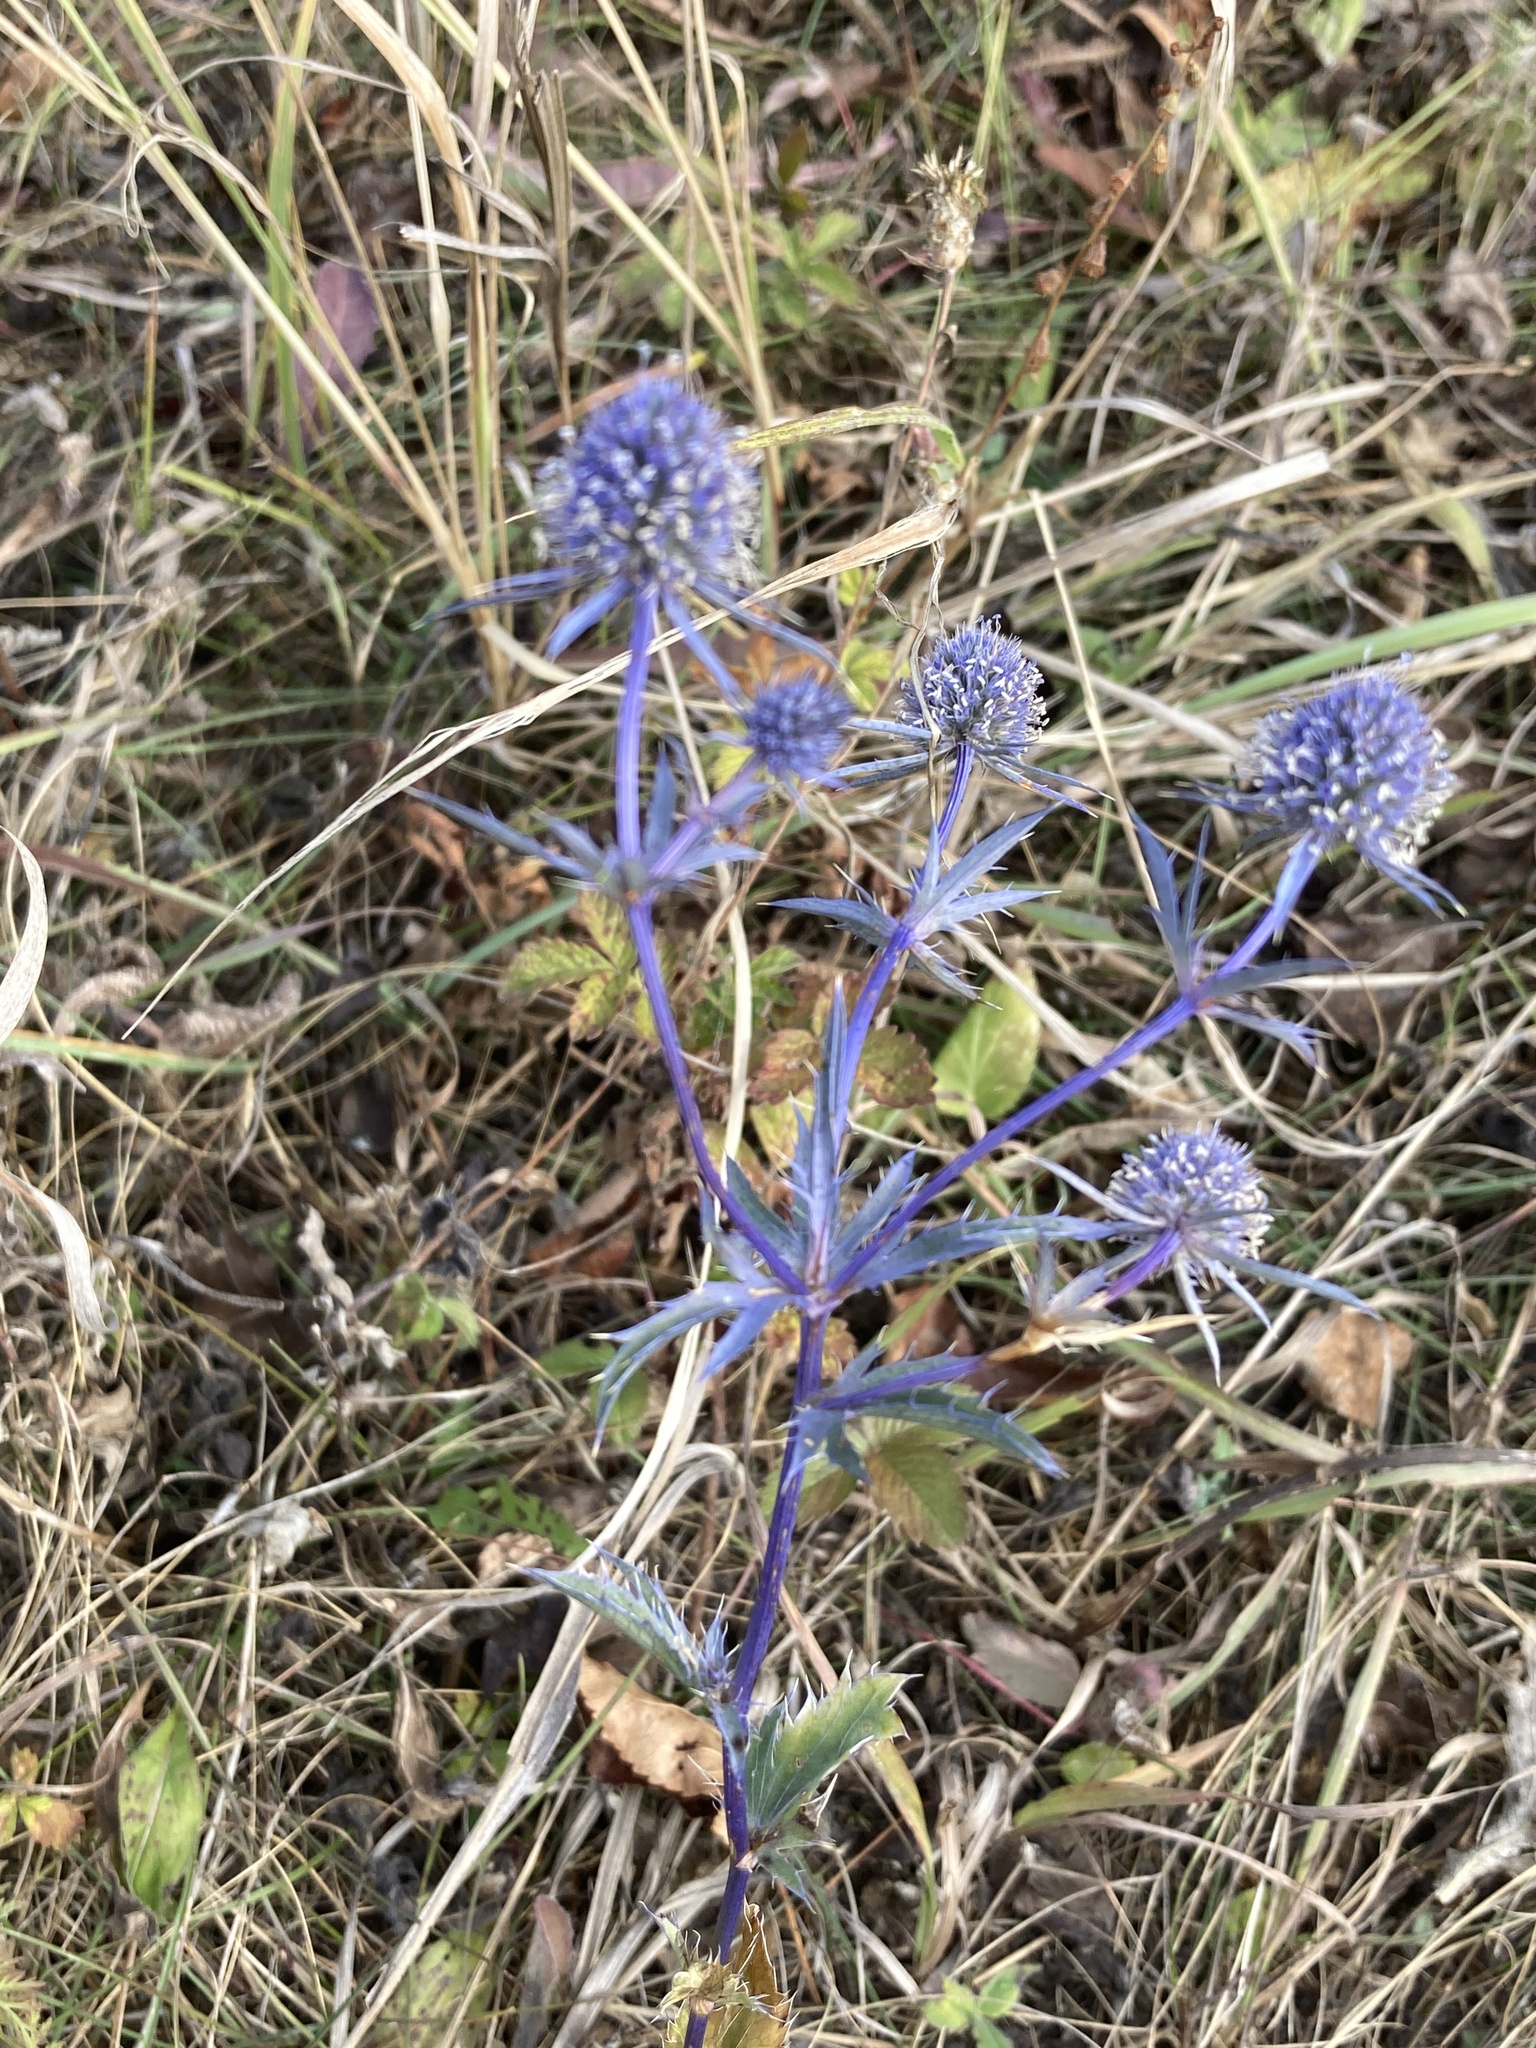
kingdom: Plantae
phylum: Tracheophyta
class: Magnoliopsida
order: Apiales
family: Apiaceae
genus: Eryngium
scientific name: Eryngium planum
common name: Blue eryngo
